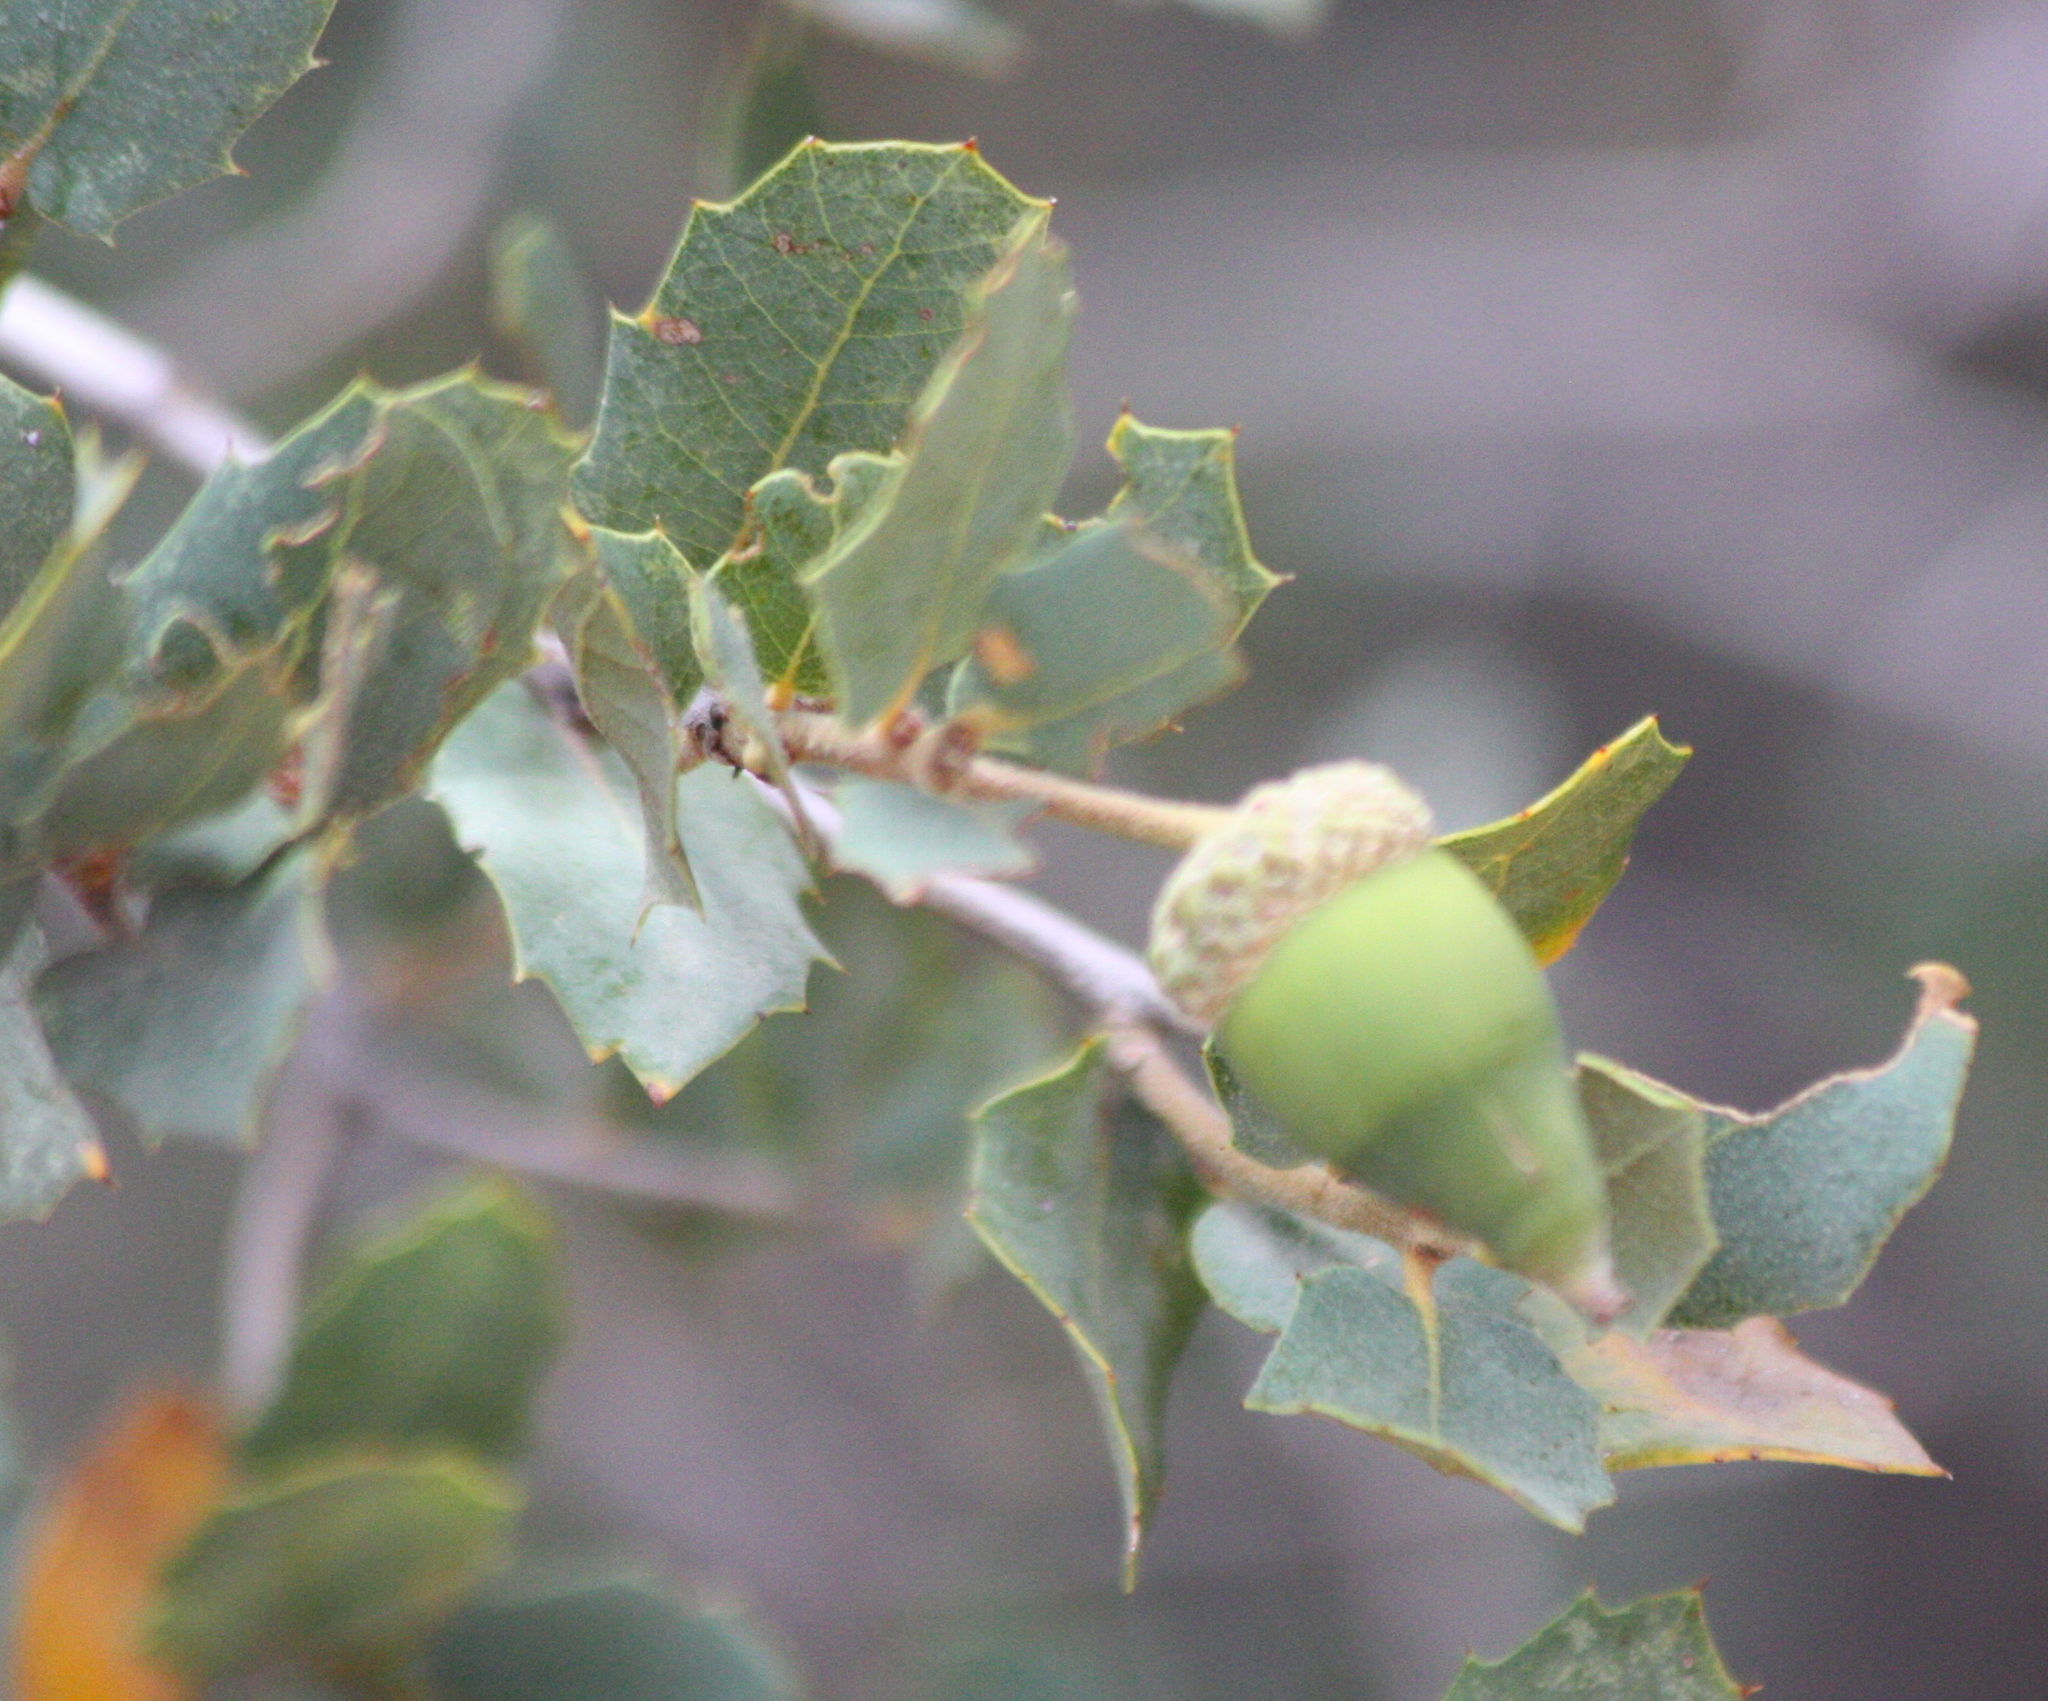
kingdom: Plantae
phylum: Tracheophyta
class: Magnoliopsida
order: Fagales
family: Fagaceae
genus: Quercus
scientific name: Quercus turbinella
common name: Sonoran scrub oak
